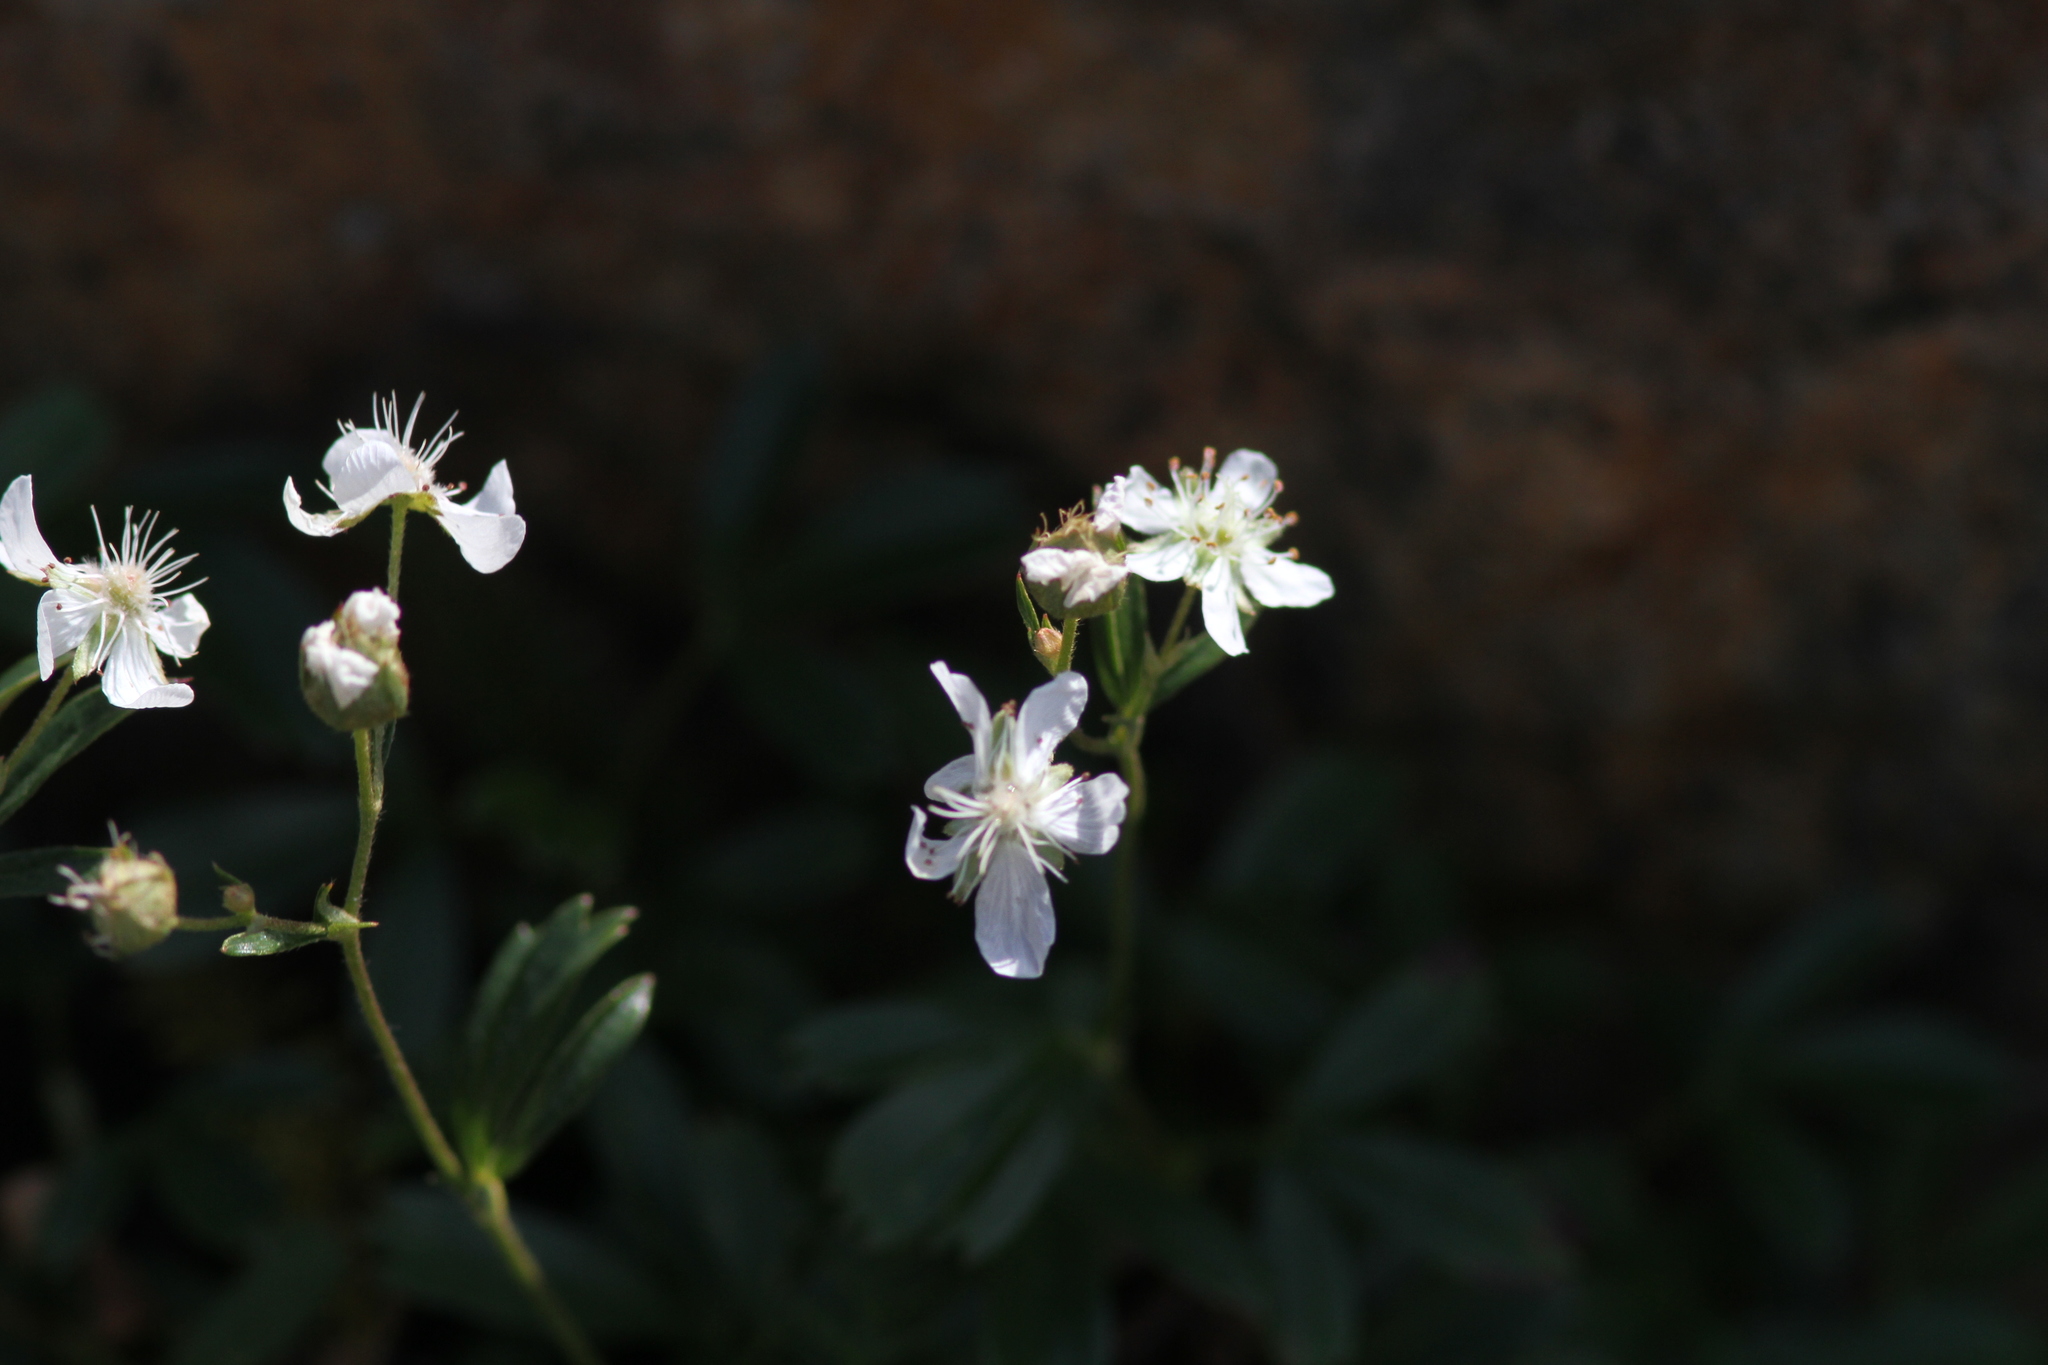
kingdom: Plantae
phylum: Tracheophyta
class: Magnoliopsida
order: Rosales
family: Rosaceae
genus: Sibbaldia
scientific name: Sibbaldia tridentata
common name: Three-toothed cinquefoil
